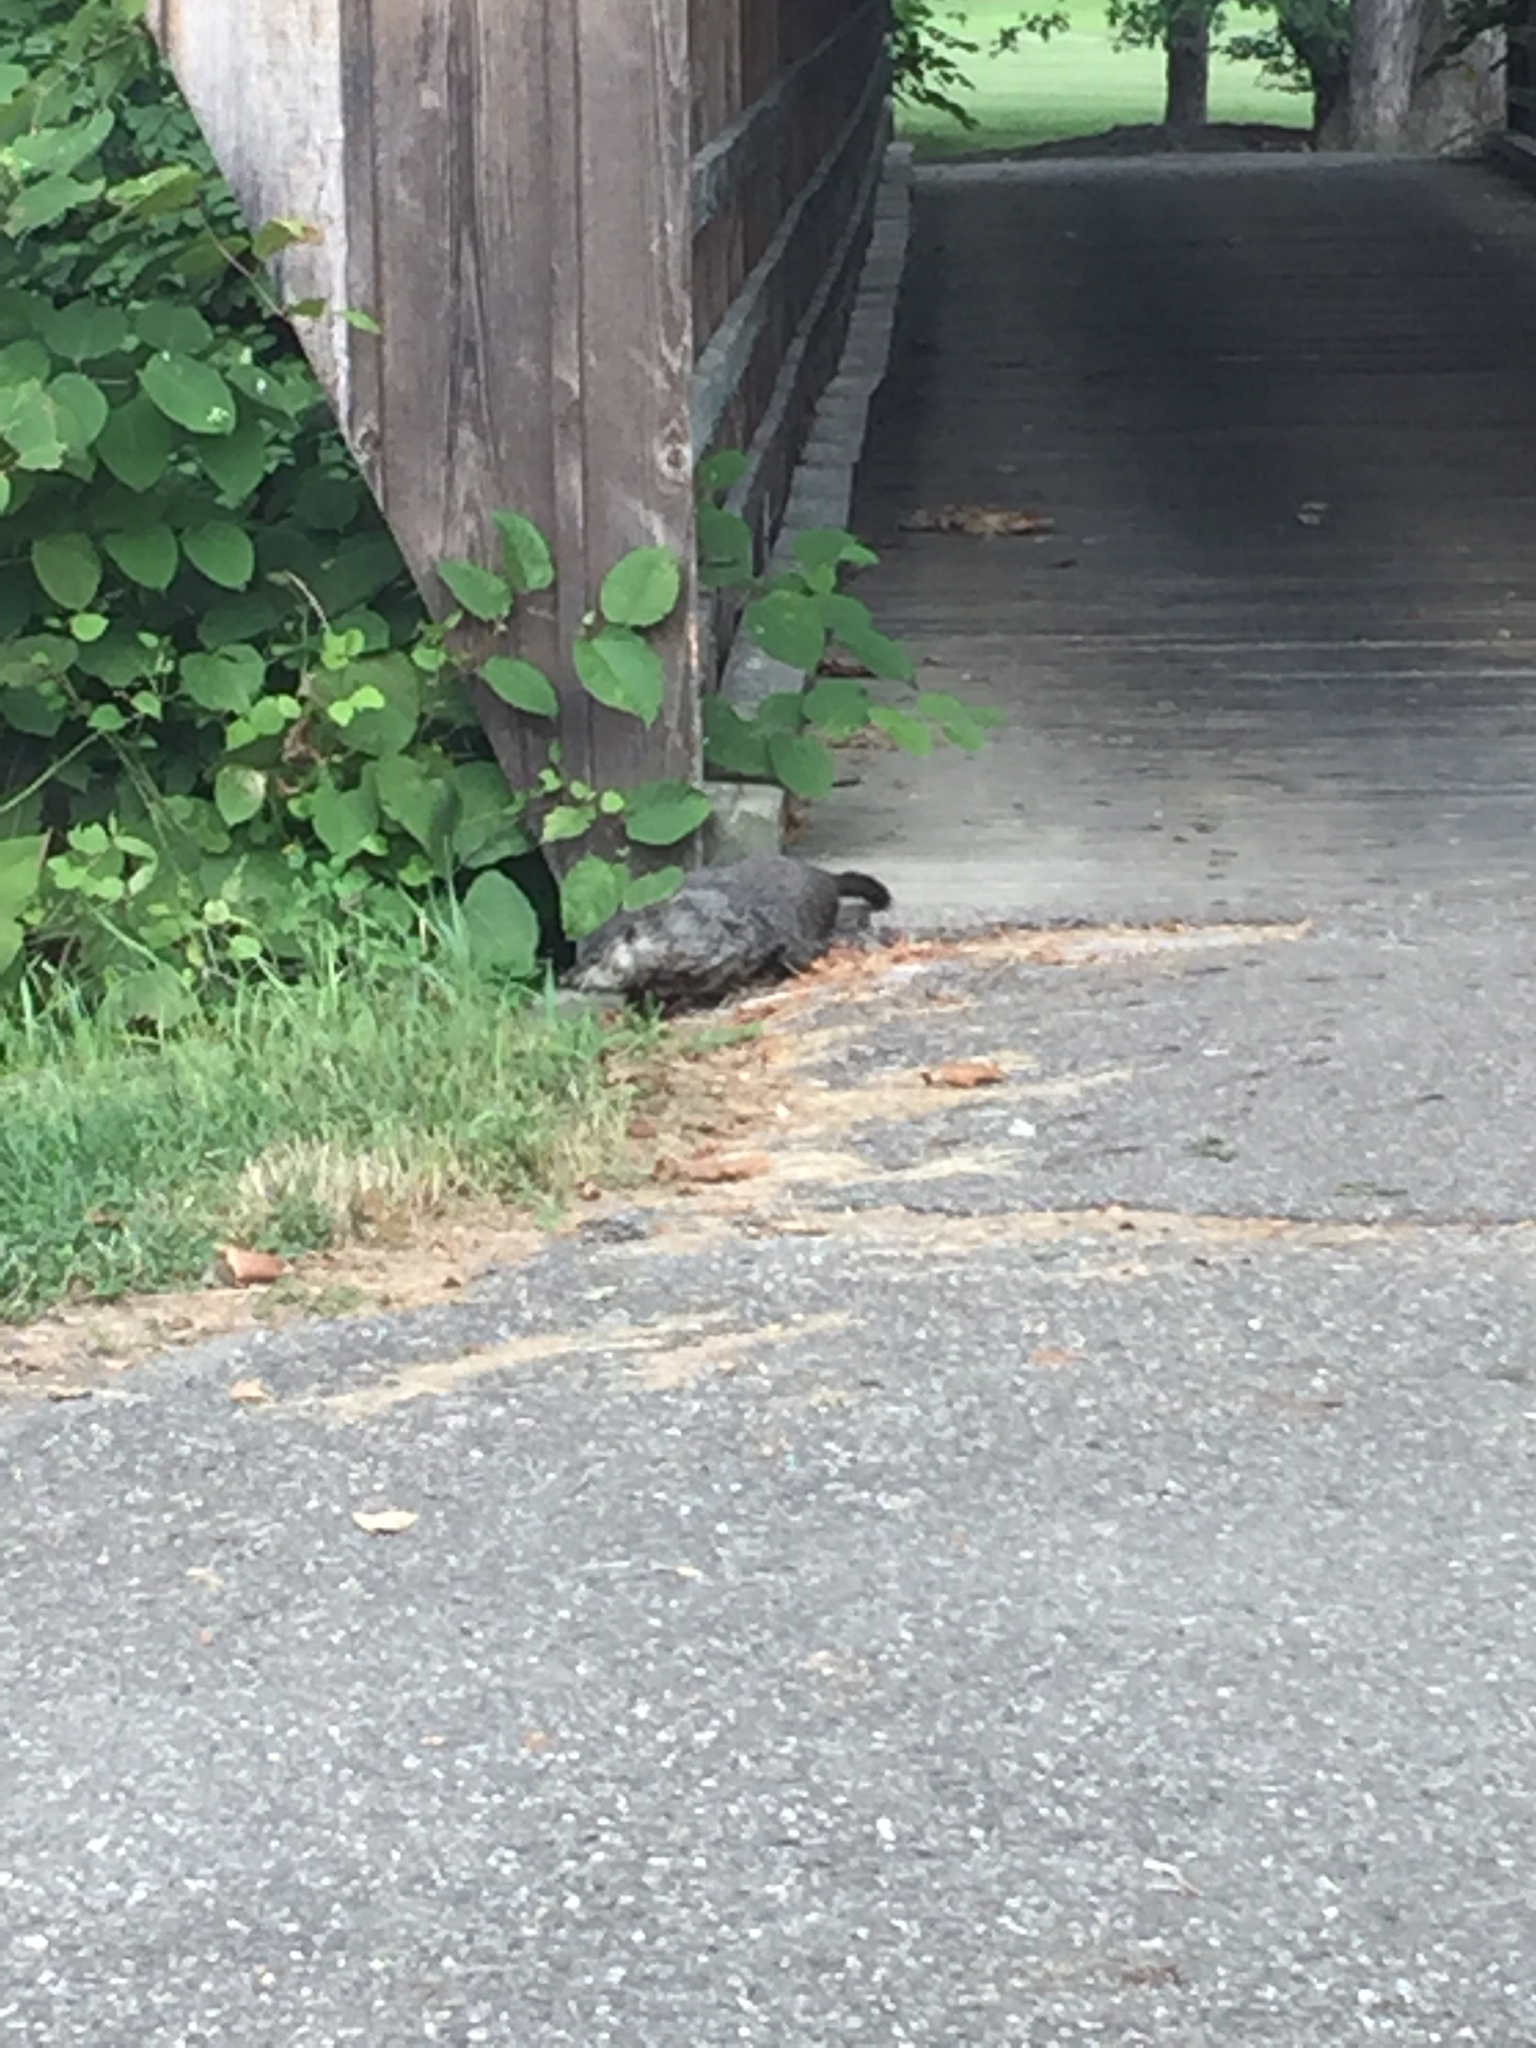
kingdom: Animalia
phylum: Chordata
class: Mammalia
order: Rodentia
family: Sciuridae
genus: Marmota
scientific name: Marmota monax
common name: Groundhog
